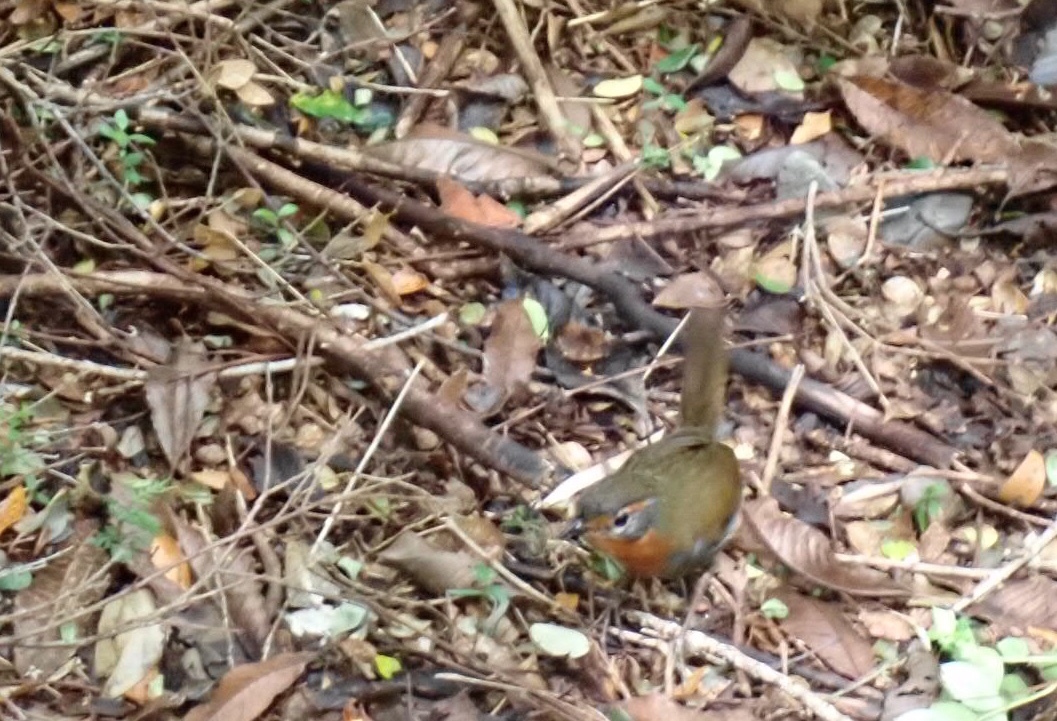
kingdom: Animalia
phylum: Chordata
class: Aves
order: Passeriformes
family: Rhinocryptidae
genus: Scelorchilus
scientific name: Scelorchilus rubecula
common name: Chucao tapaculo
